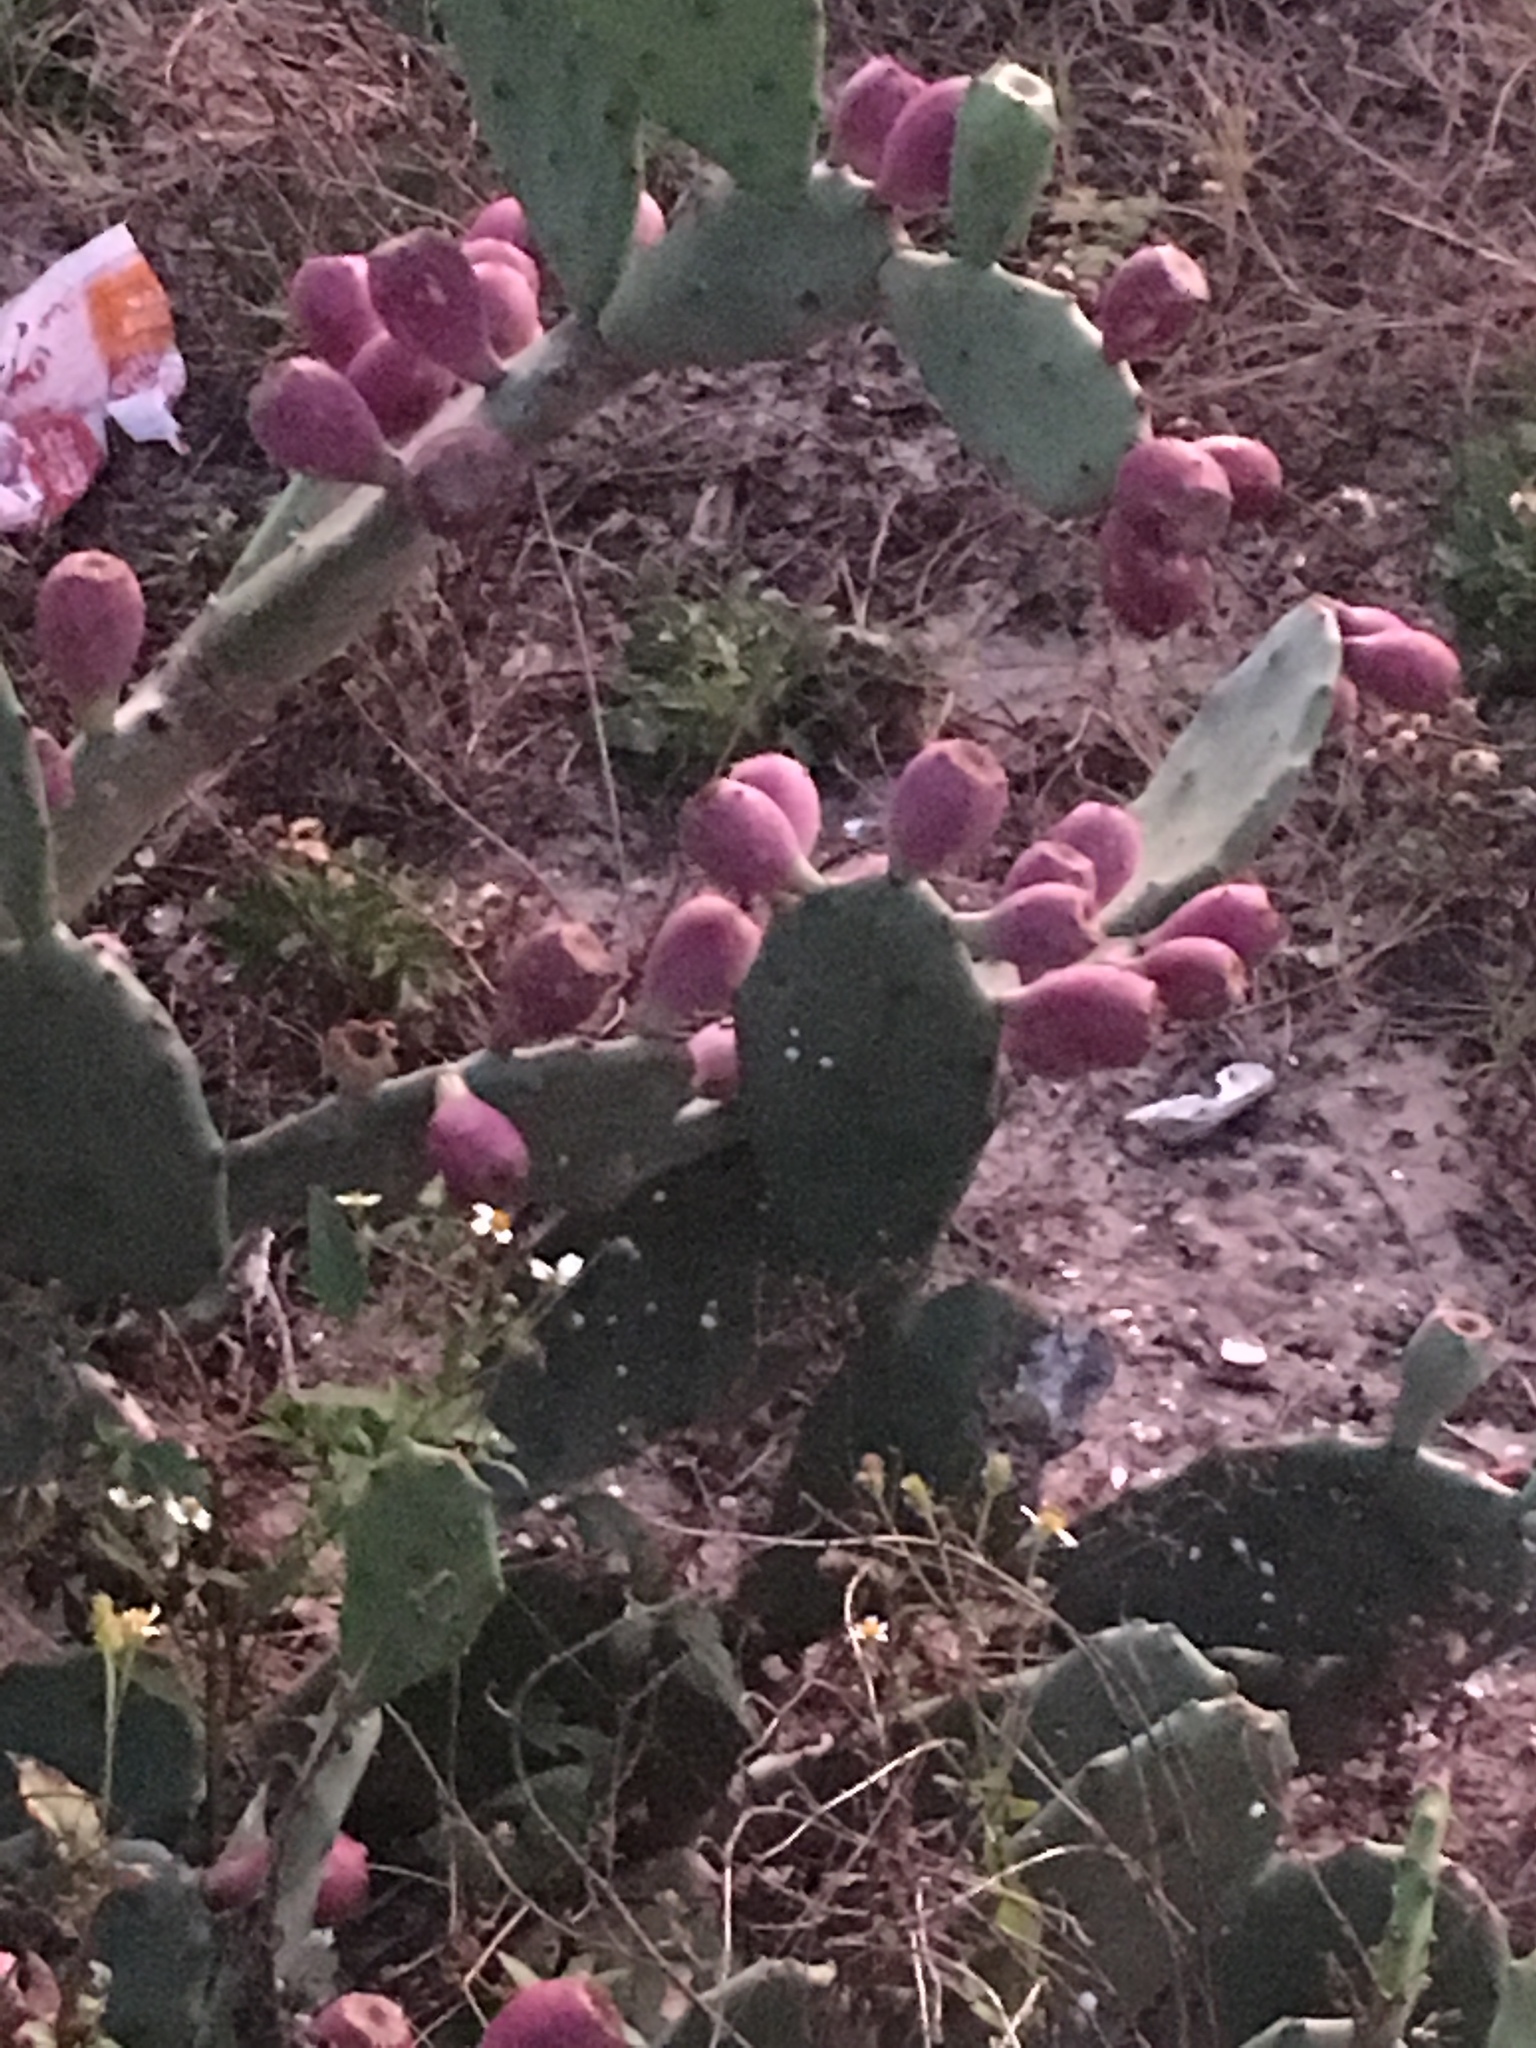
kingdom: Plantae
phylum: Tracheophyta
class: Magnoliopsida
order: Caryophyllales
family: Cactaceae
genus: Opuntia
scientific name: Opuntia stricta
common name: Erect pricklypear
